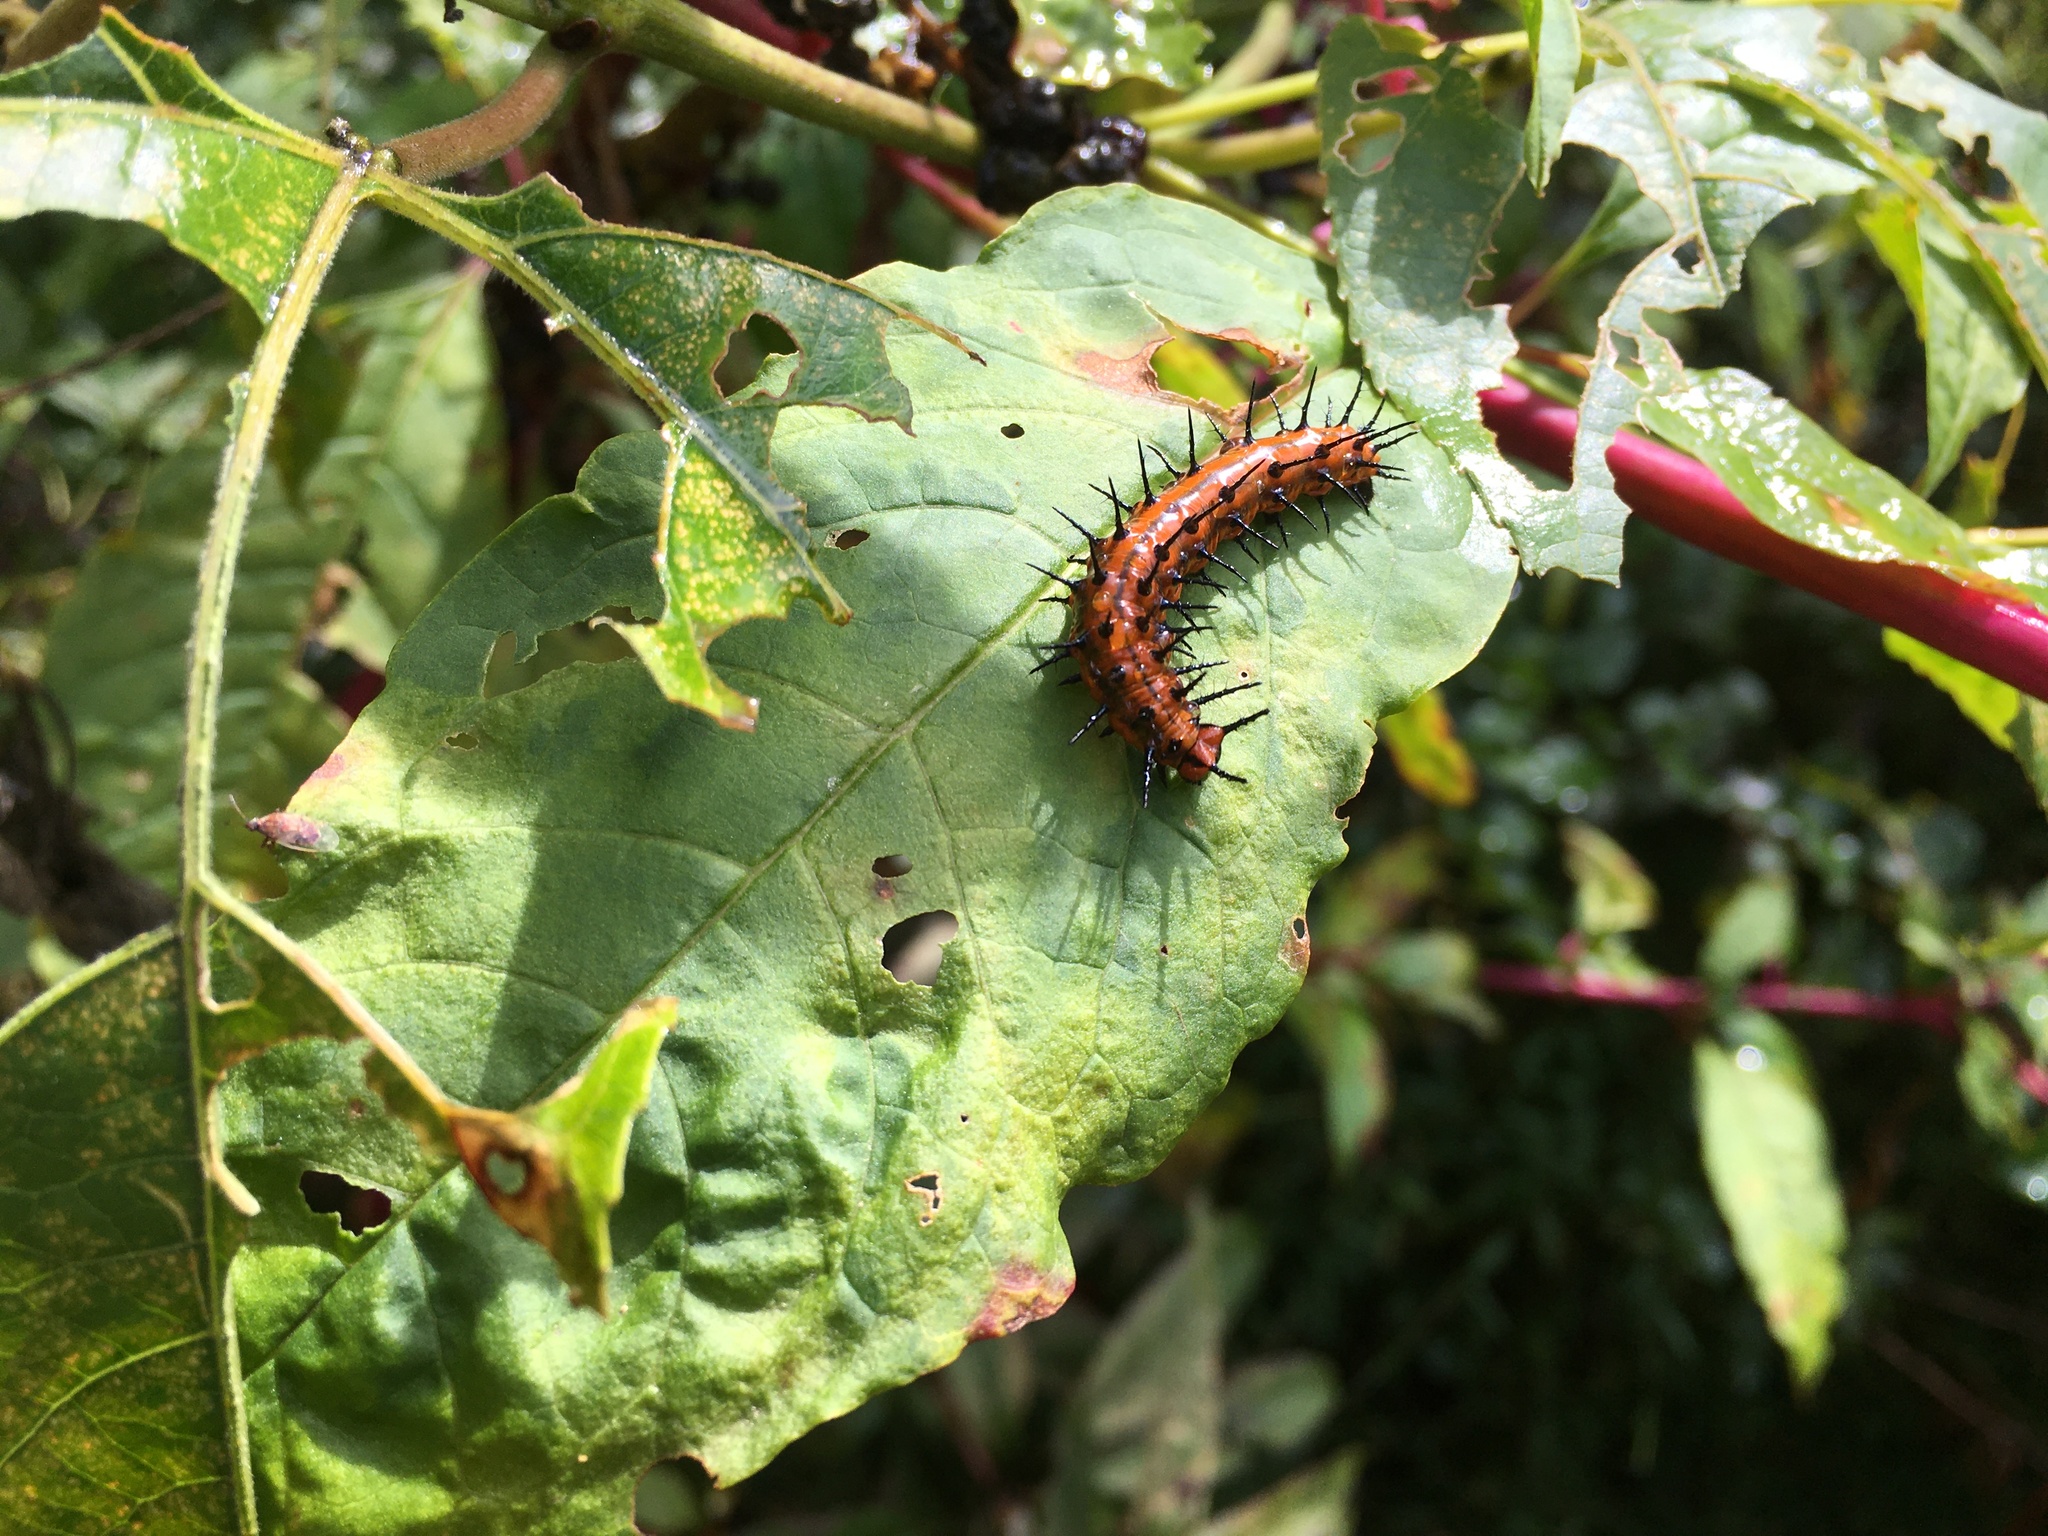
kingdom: Animalia
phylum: Arthropoda
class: Insecta
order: Lepidoptera
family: Nymphalidae
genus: Dione
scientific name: Dione vanillae
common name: Gulf fritillary
